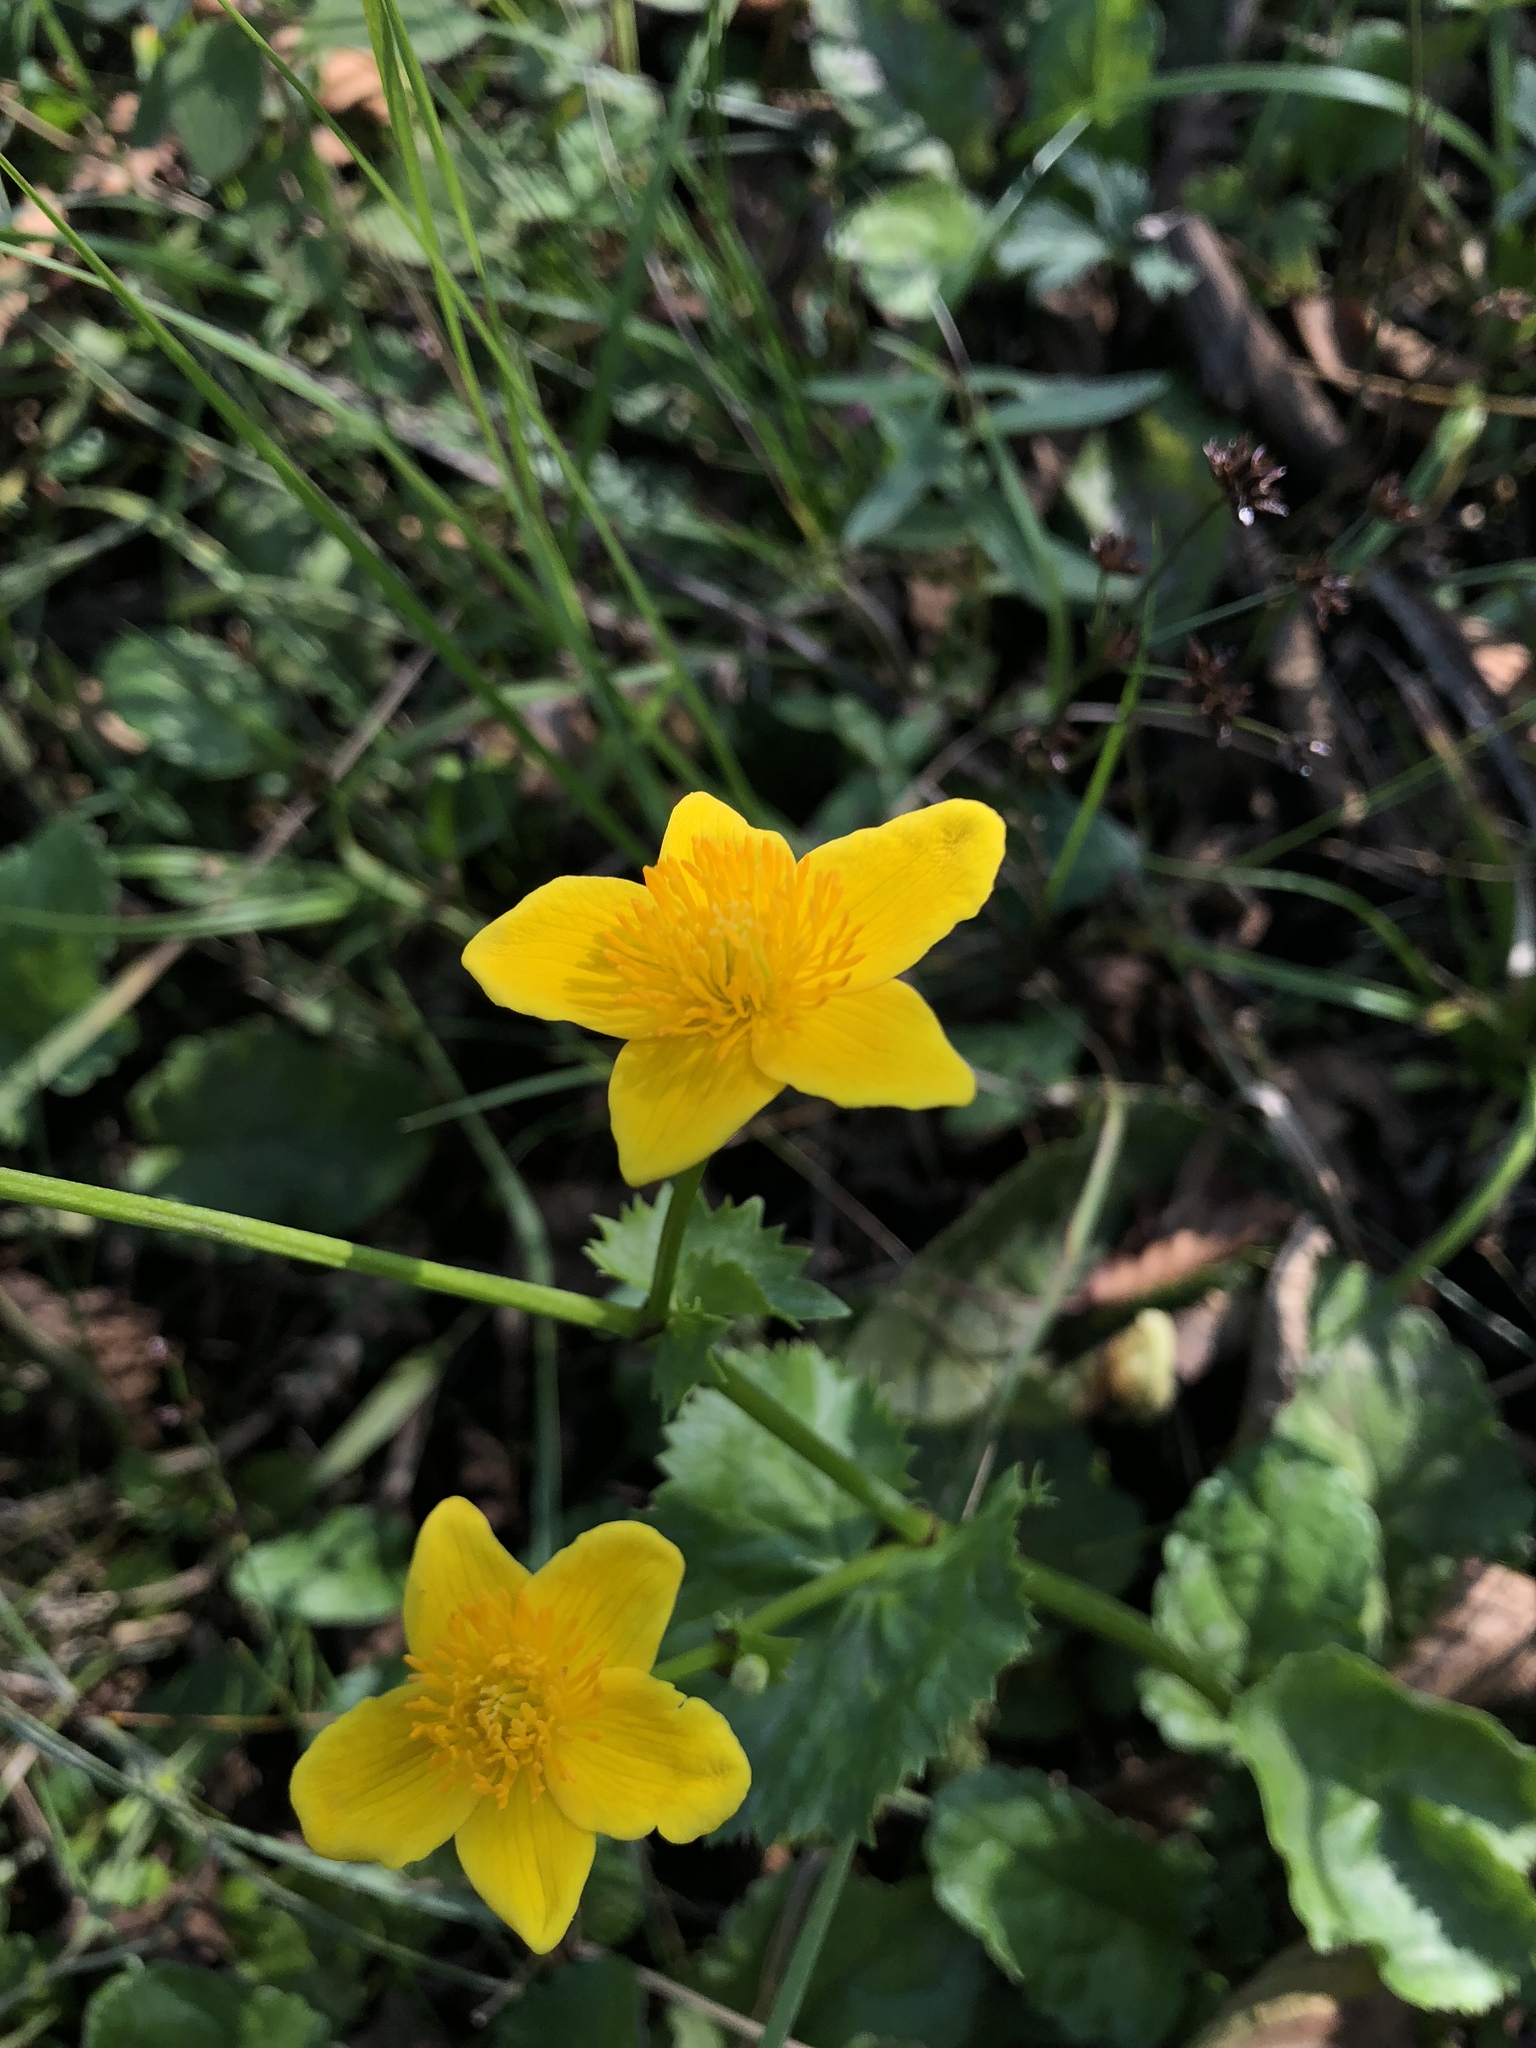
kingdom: Plantae
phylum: Tracheophyta
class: Magnoliopsida
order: Ranunculales
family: Ranunculaceae
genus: Caltha
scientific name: Caltha palustris
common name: Marsh marigold
